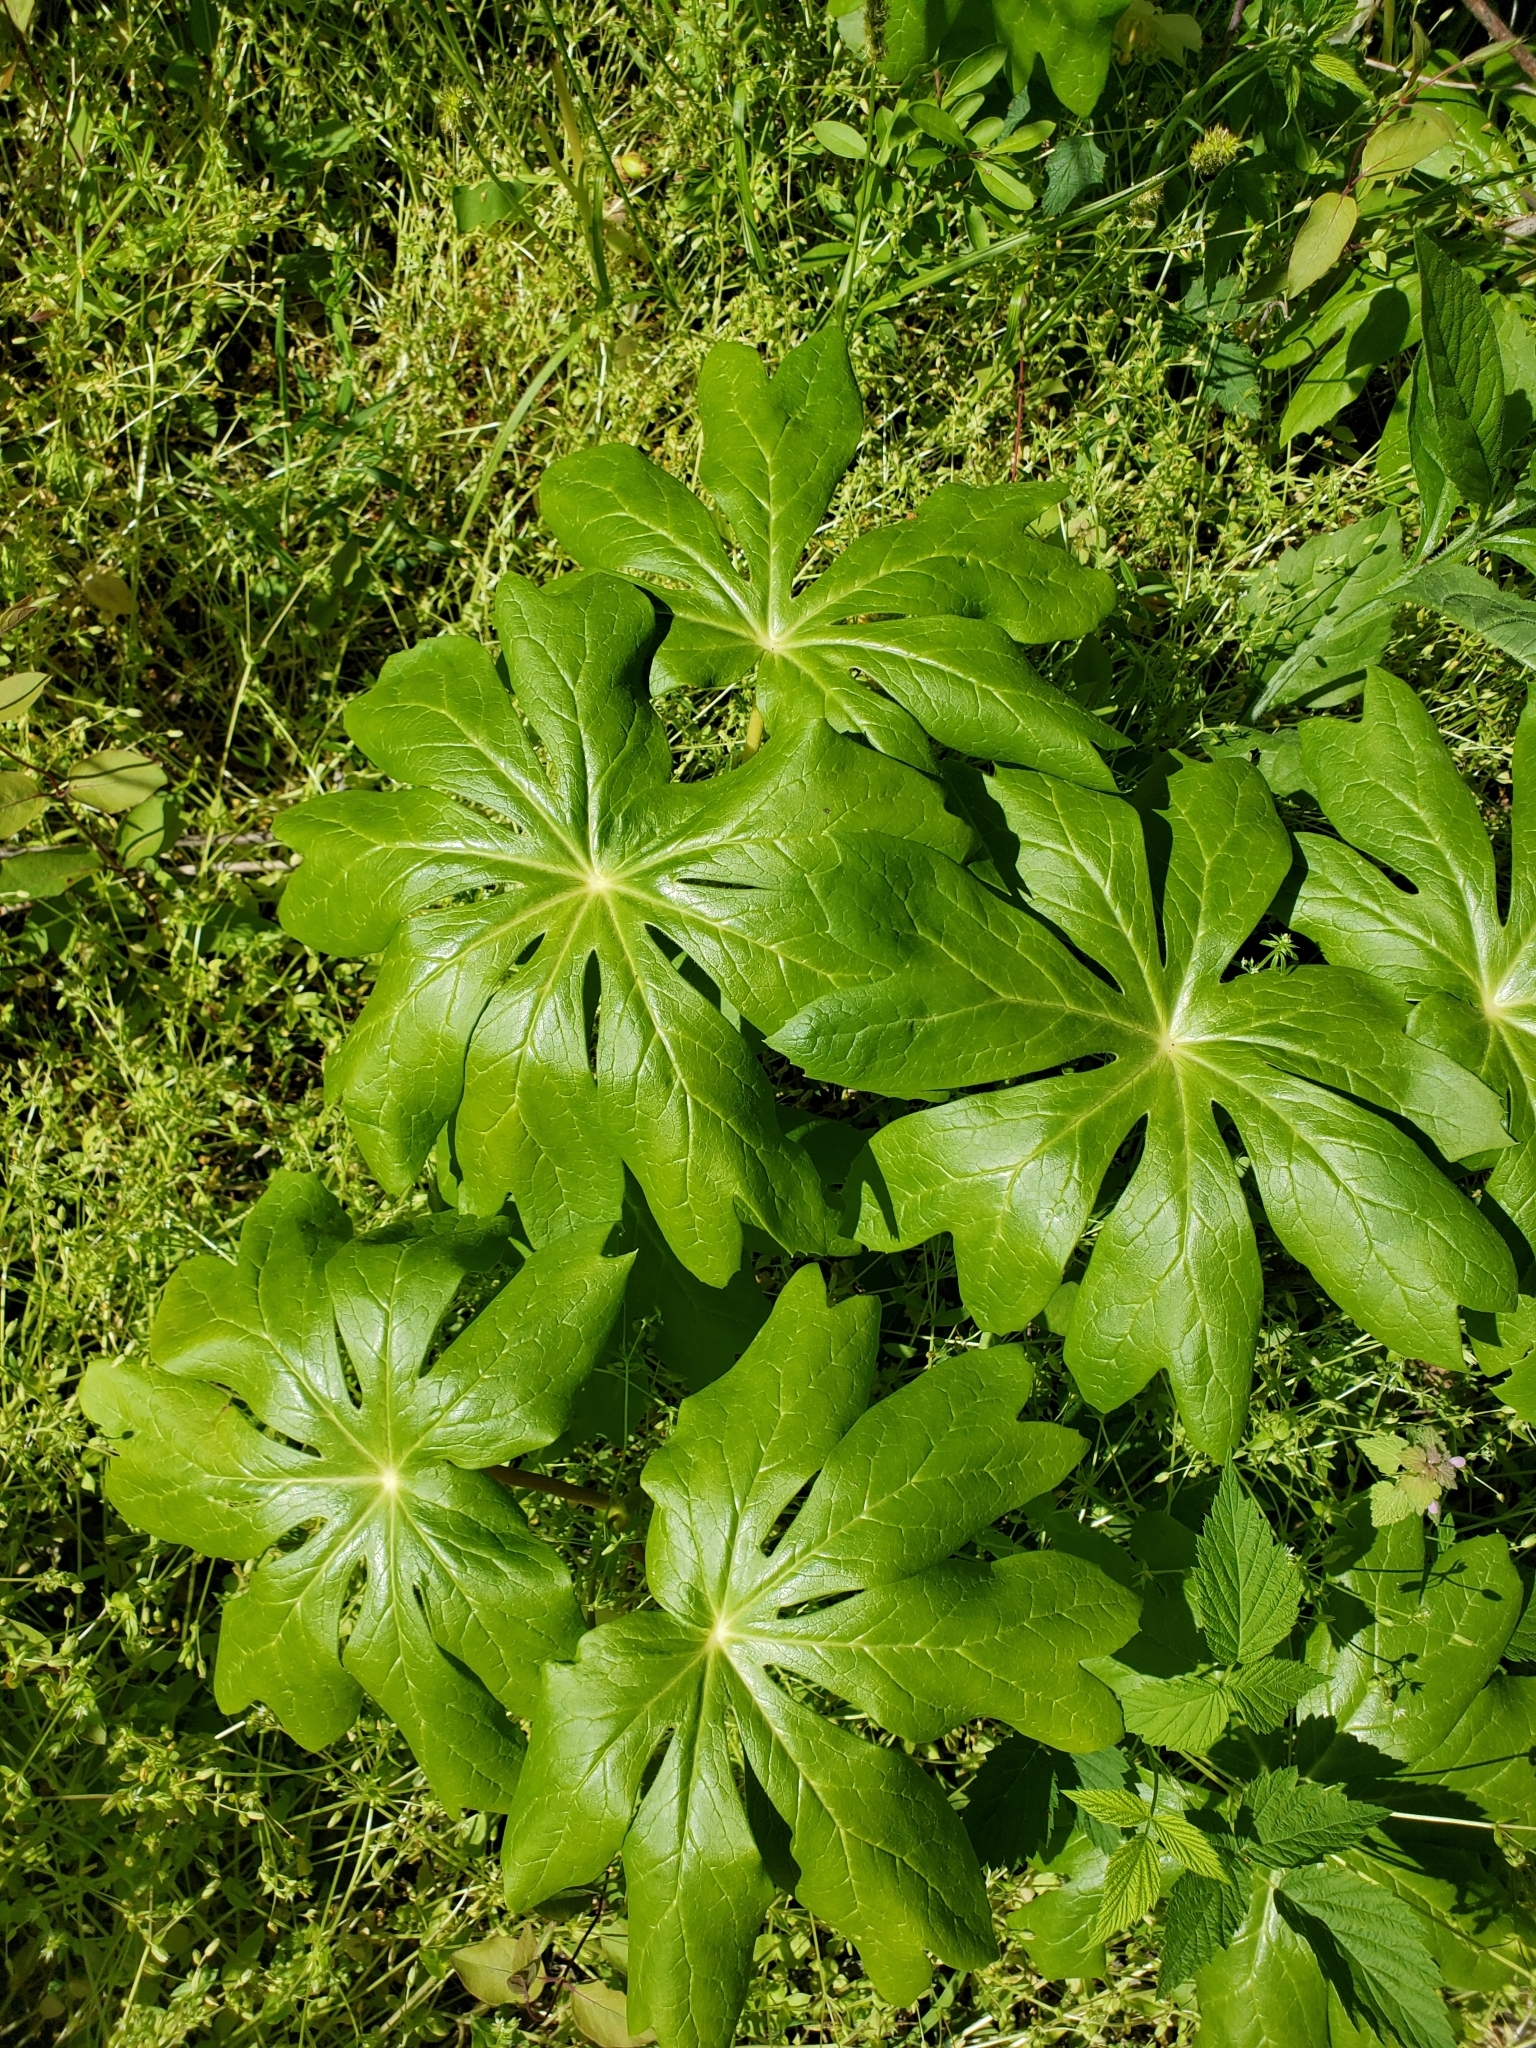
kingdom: Plantae
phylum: Tracheophyta
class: Magnoliopsida
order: Ranunculales
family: Berberidaceae
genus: Podophyllum
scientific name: Podophyllum peltatum
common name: Wild mandrake
